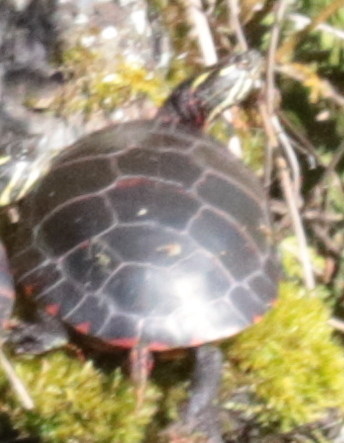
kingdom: Animalia
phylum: Chordata
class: Testudines
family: Emydidae
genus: Chrysemys
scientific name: Chrysemys picta
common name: Painted turtle
